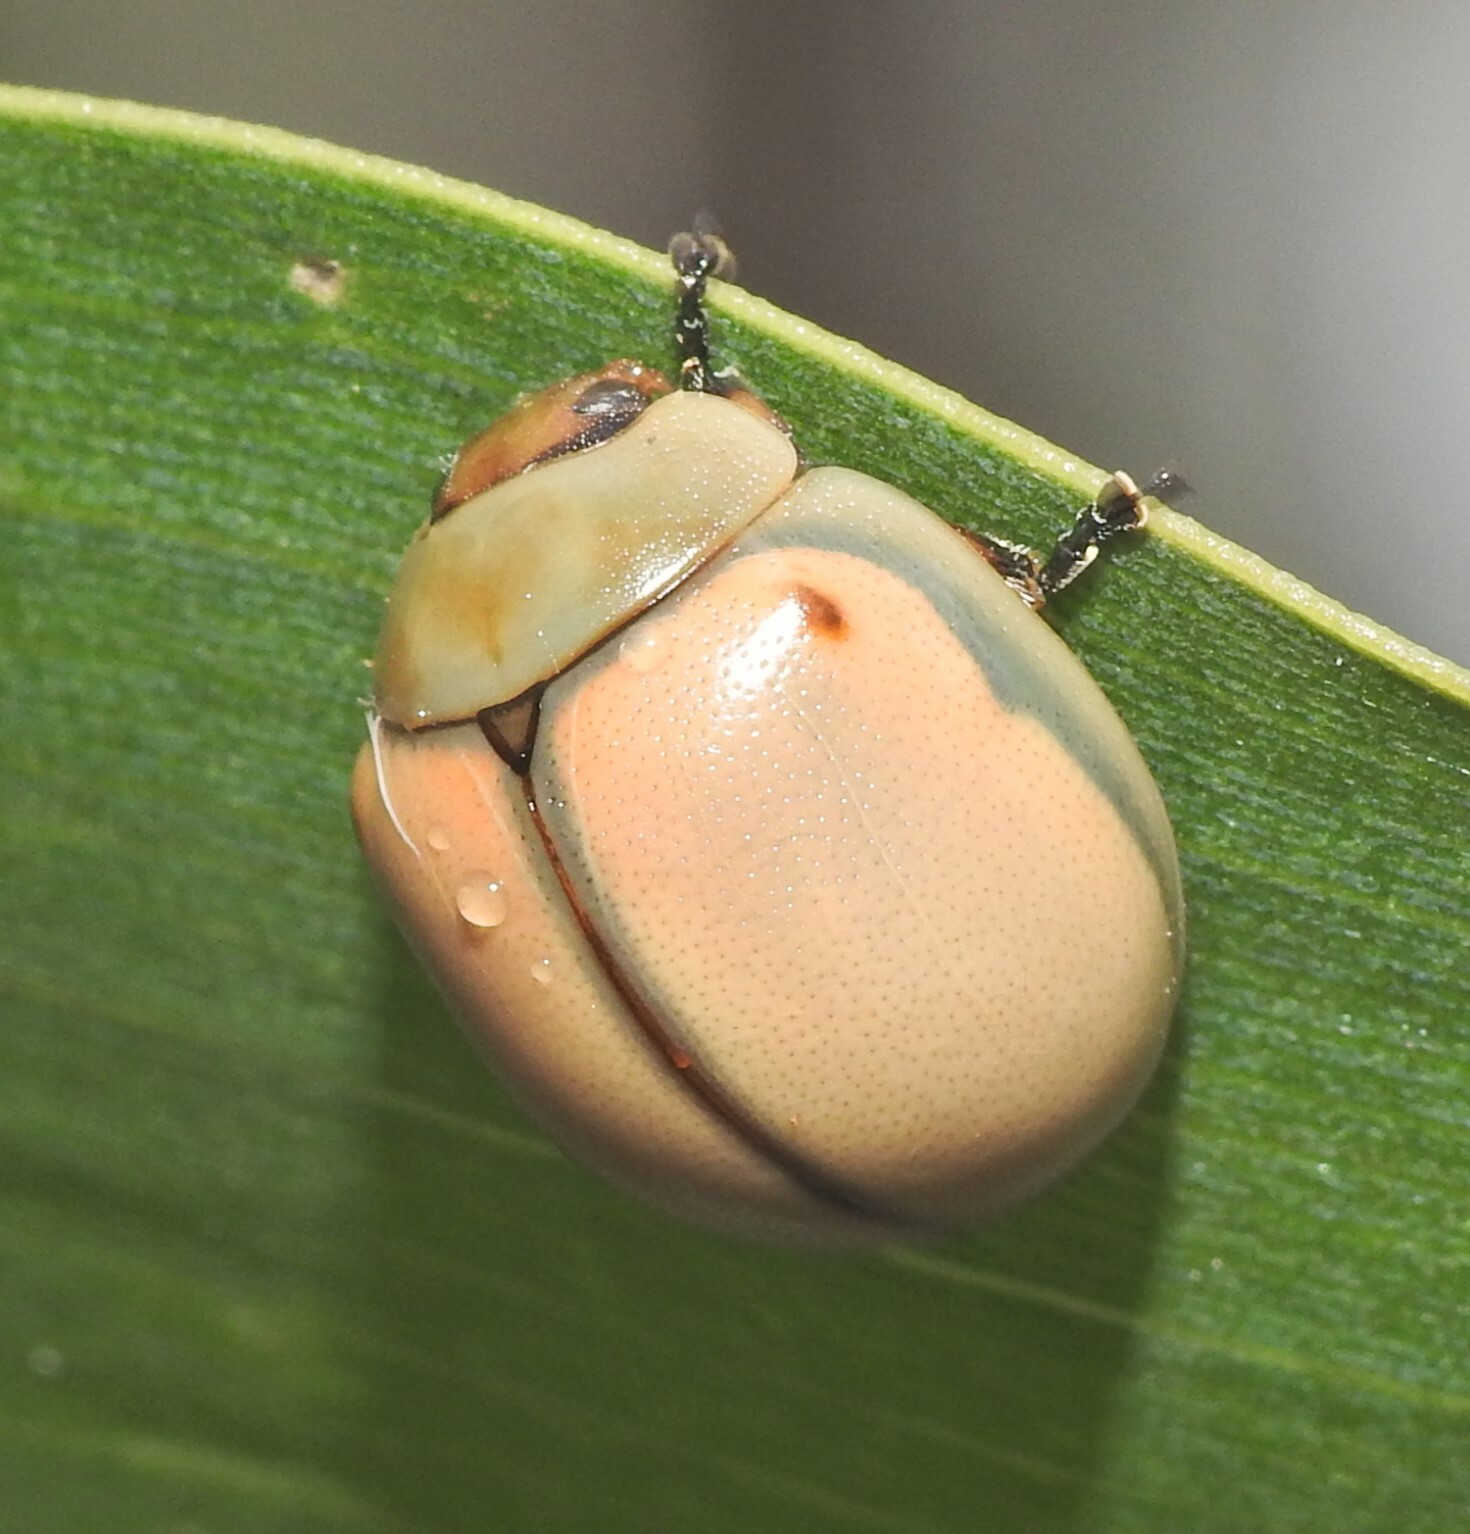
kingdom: Animalia
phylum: Arthropoda
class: Insecta
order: Coleoptera
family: Chrysomelidae
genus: Dicranosterna
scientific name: Dicranosterna
